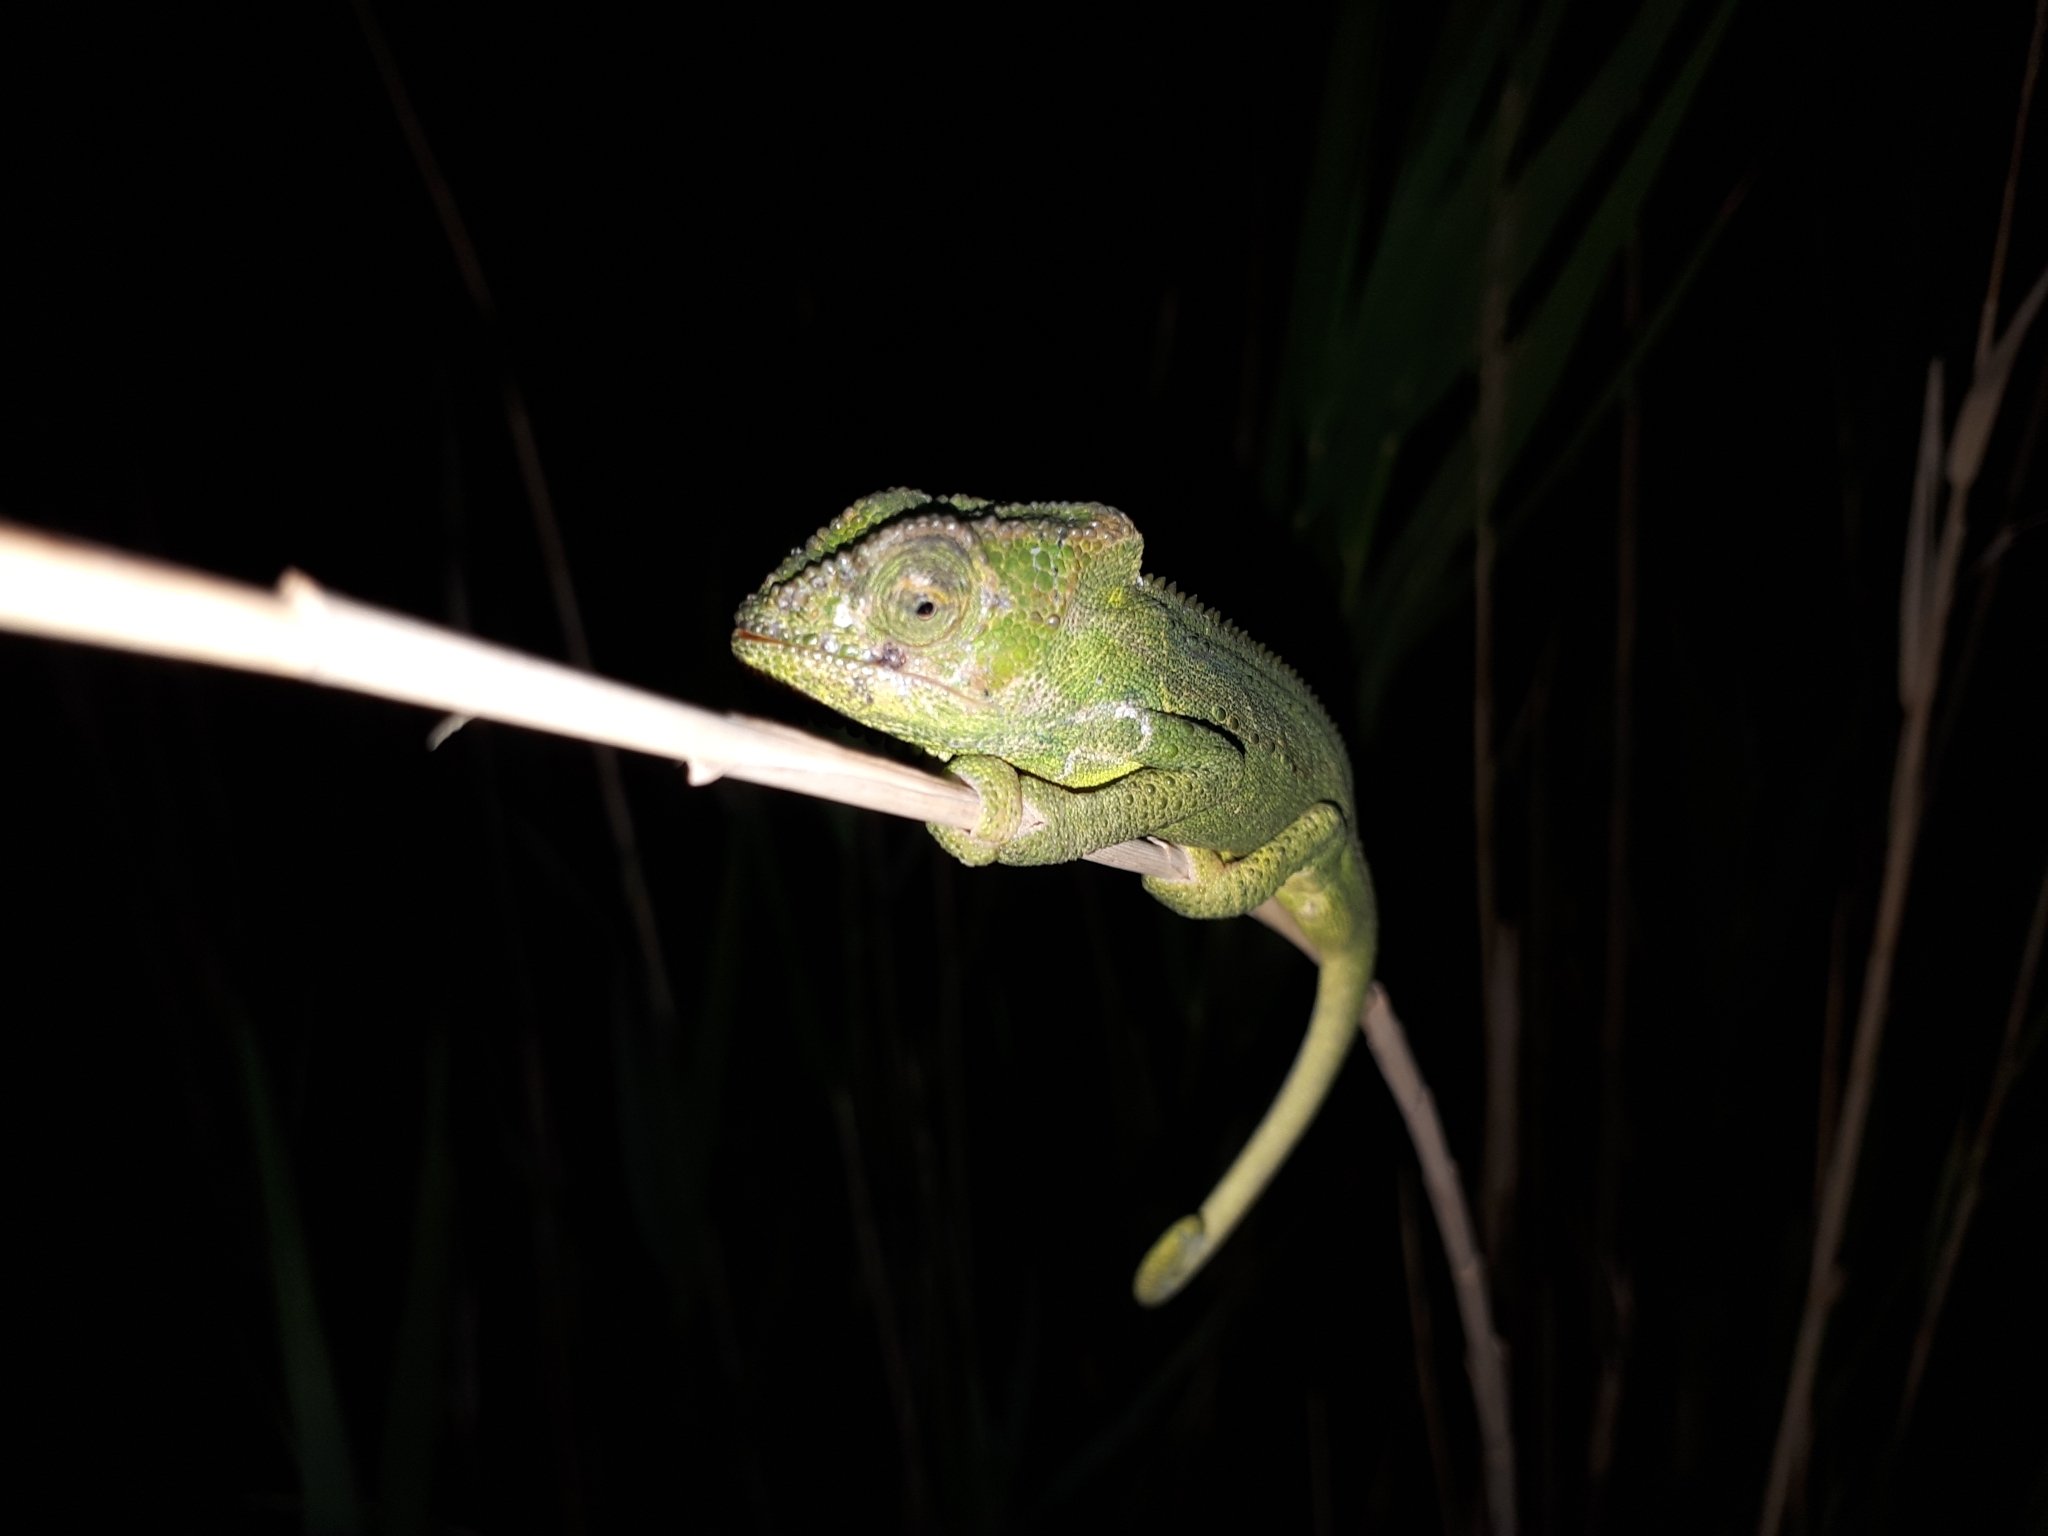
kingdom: Animalia
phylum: Chordata
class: Squamata
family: Chamaeleonidae
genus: Bradypodion
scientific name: Bradypodion pumilum
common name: Cape dwarf chameleon
